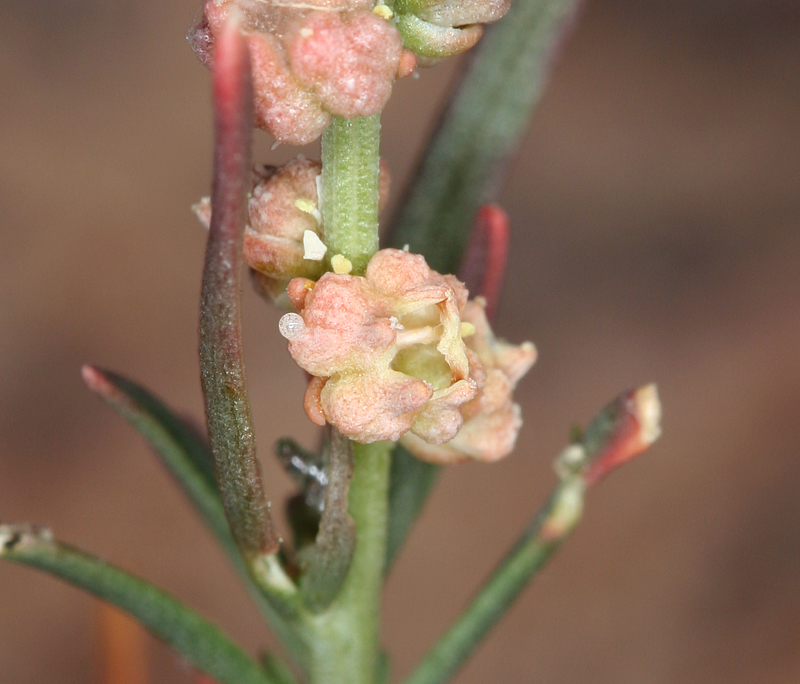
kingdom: Plantae
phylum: Tracheophyta
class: Magnoliopsida
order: Brassicales
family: Resedaceae
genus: Oligomeris
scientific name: Oligomeris linifolia
